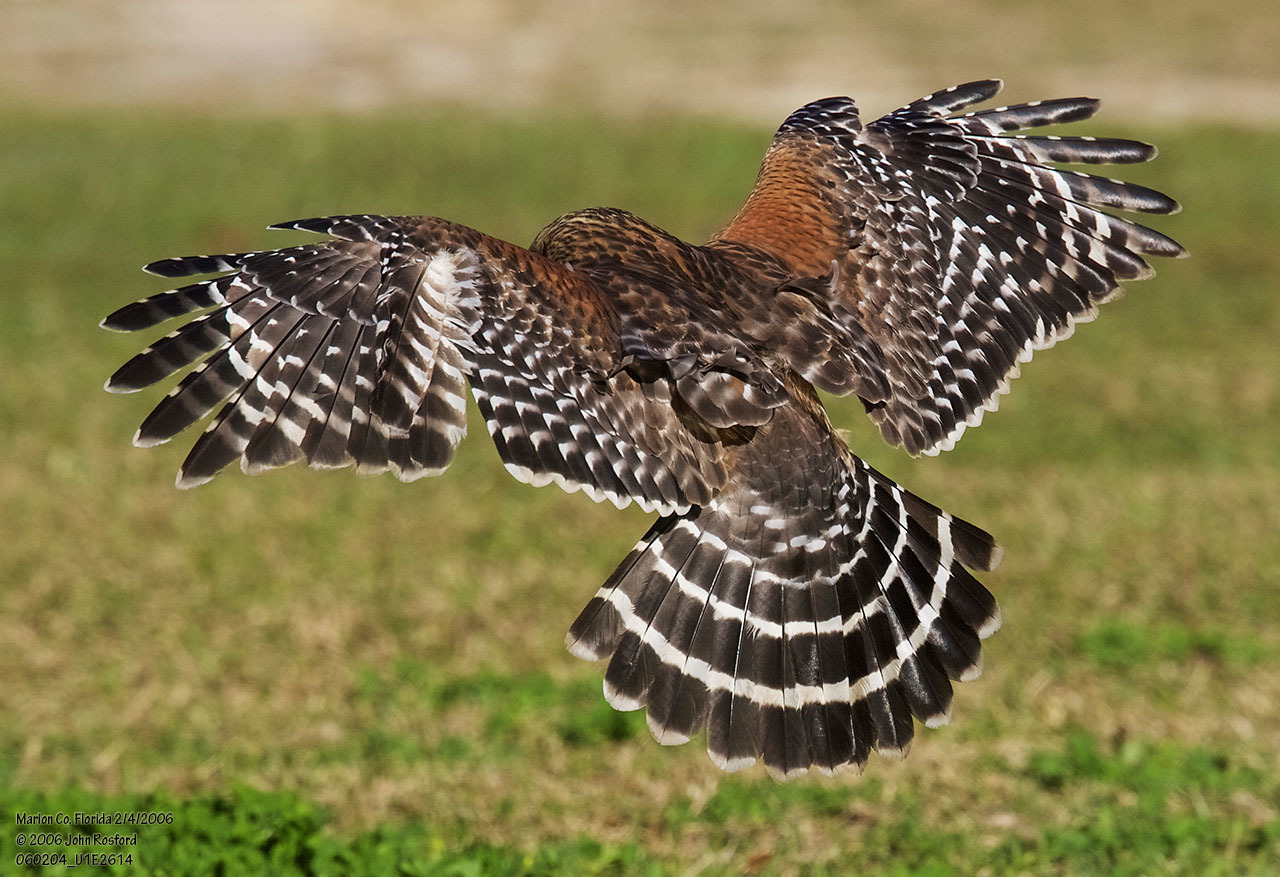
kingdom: Animalia
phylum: Chordata
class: Aves
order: Accipitriformes
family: Accipitridae
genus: Buteo
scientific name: Buteo lineatus
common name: Red-shouldered hawk
